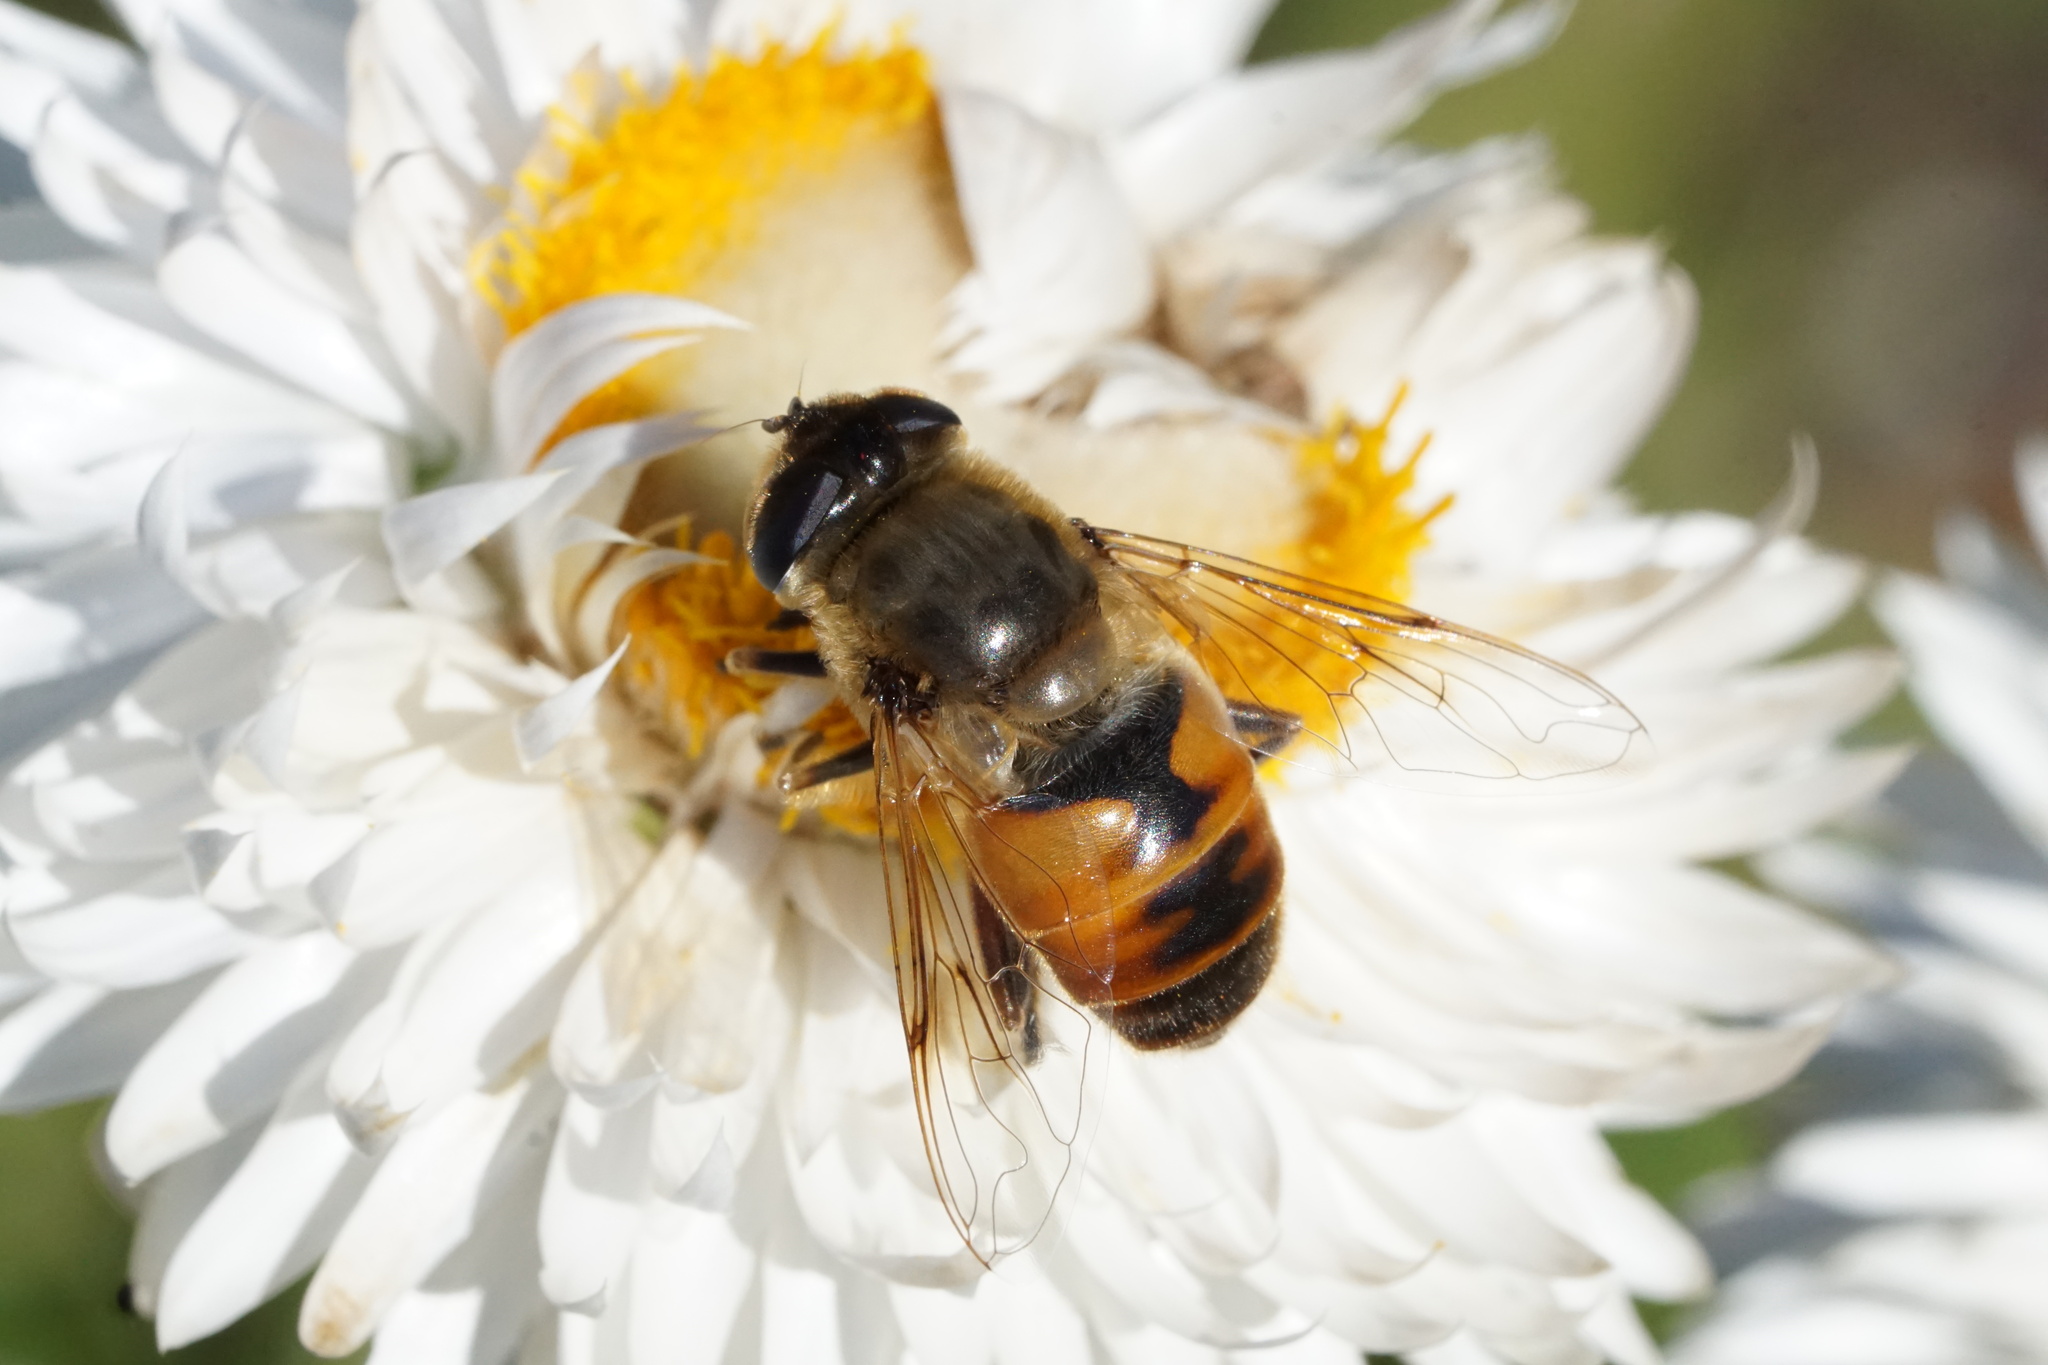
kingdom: Animalia
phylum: Arthropoda
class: Insecta
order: Diptera
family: Syrphidae
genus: Eristalis
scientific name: Eristalis tenax
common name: Drone fly
